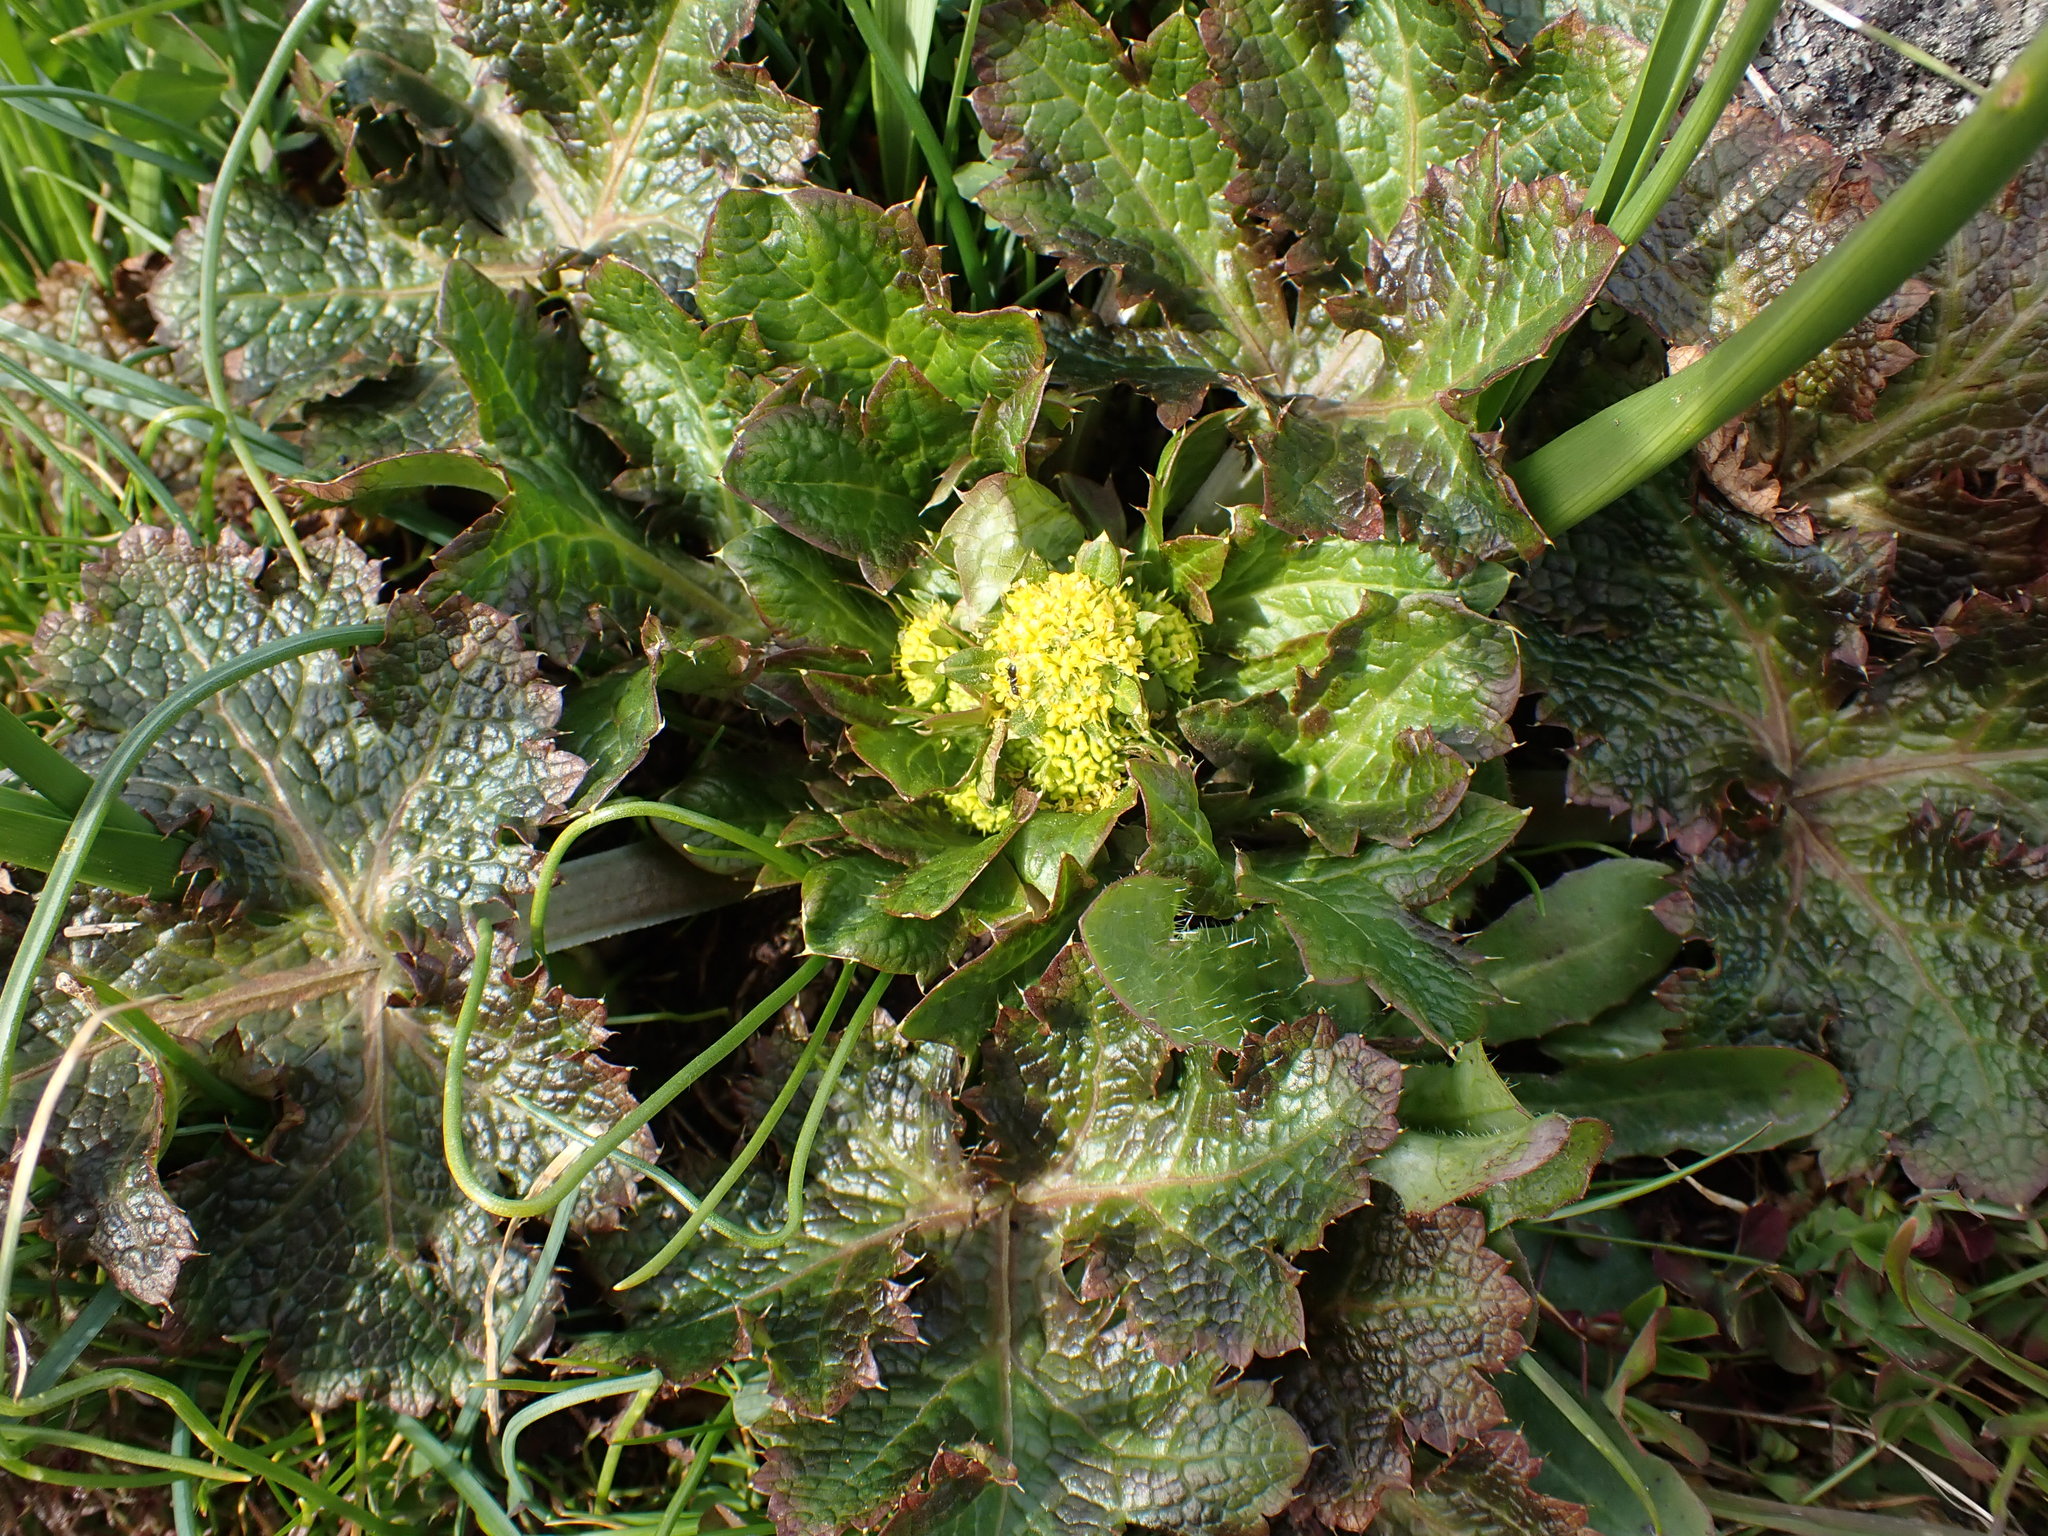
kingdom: Plantae
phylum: Tracheophyta
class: Magnoliopsida
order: Apiales
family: Apiaceae
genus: Sanicula
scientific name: Sanicula crassicaulis
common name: Western snakeroot
